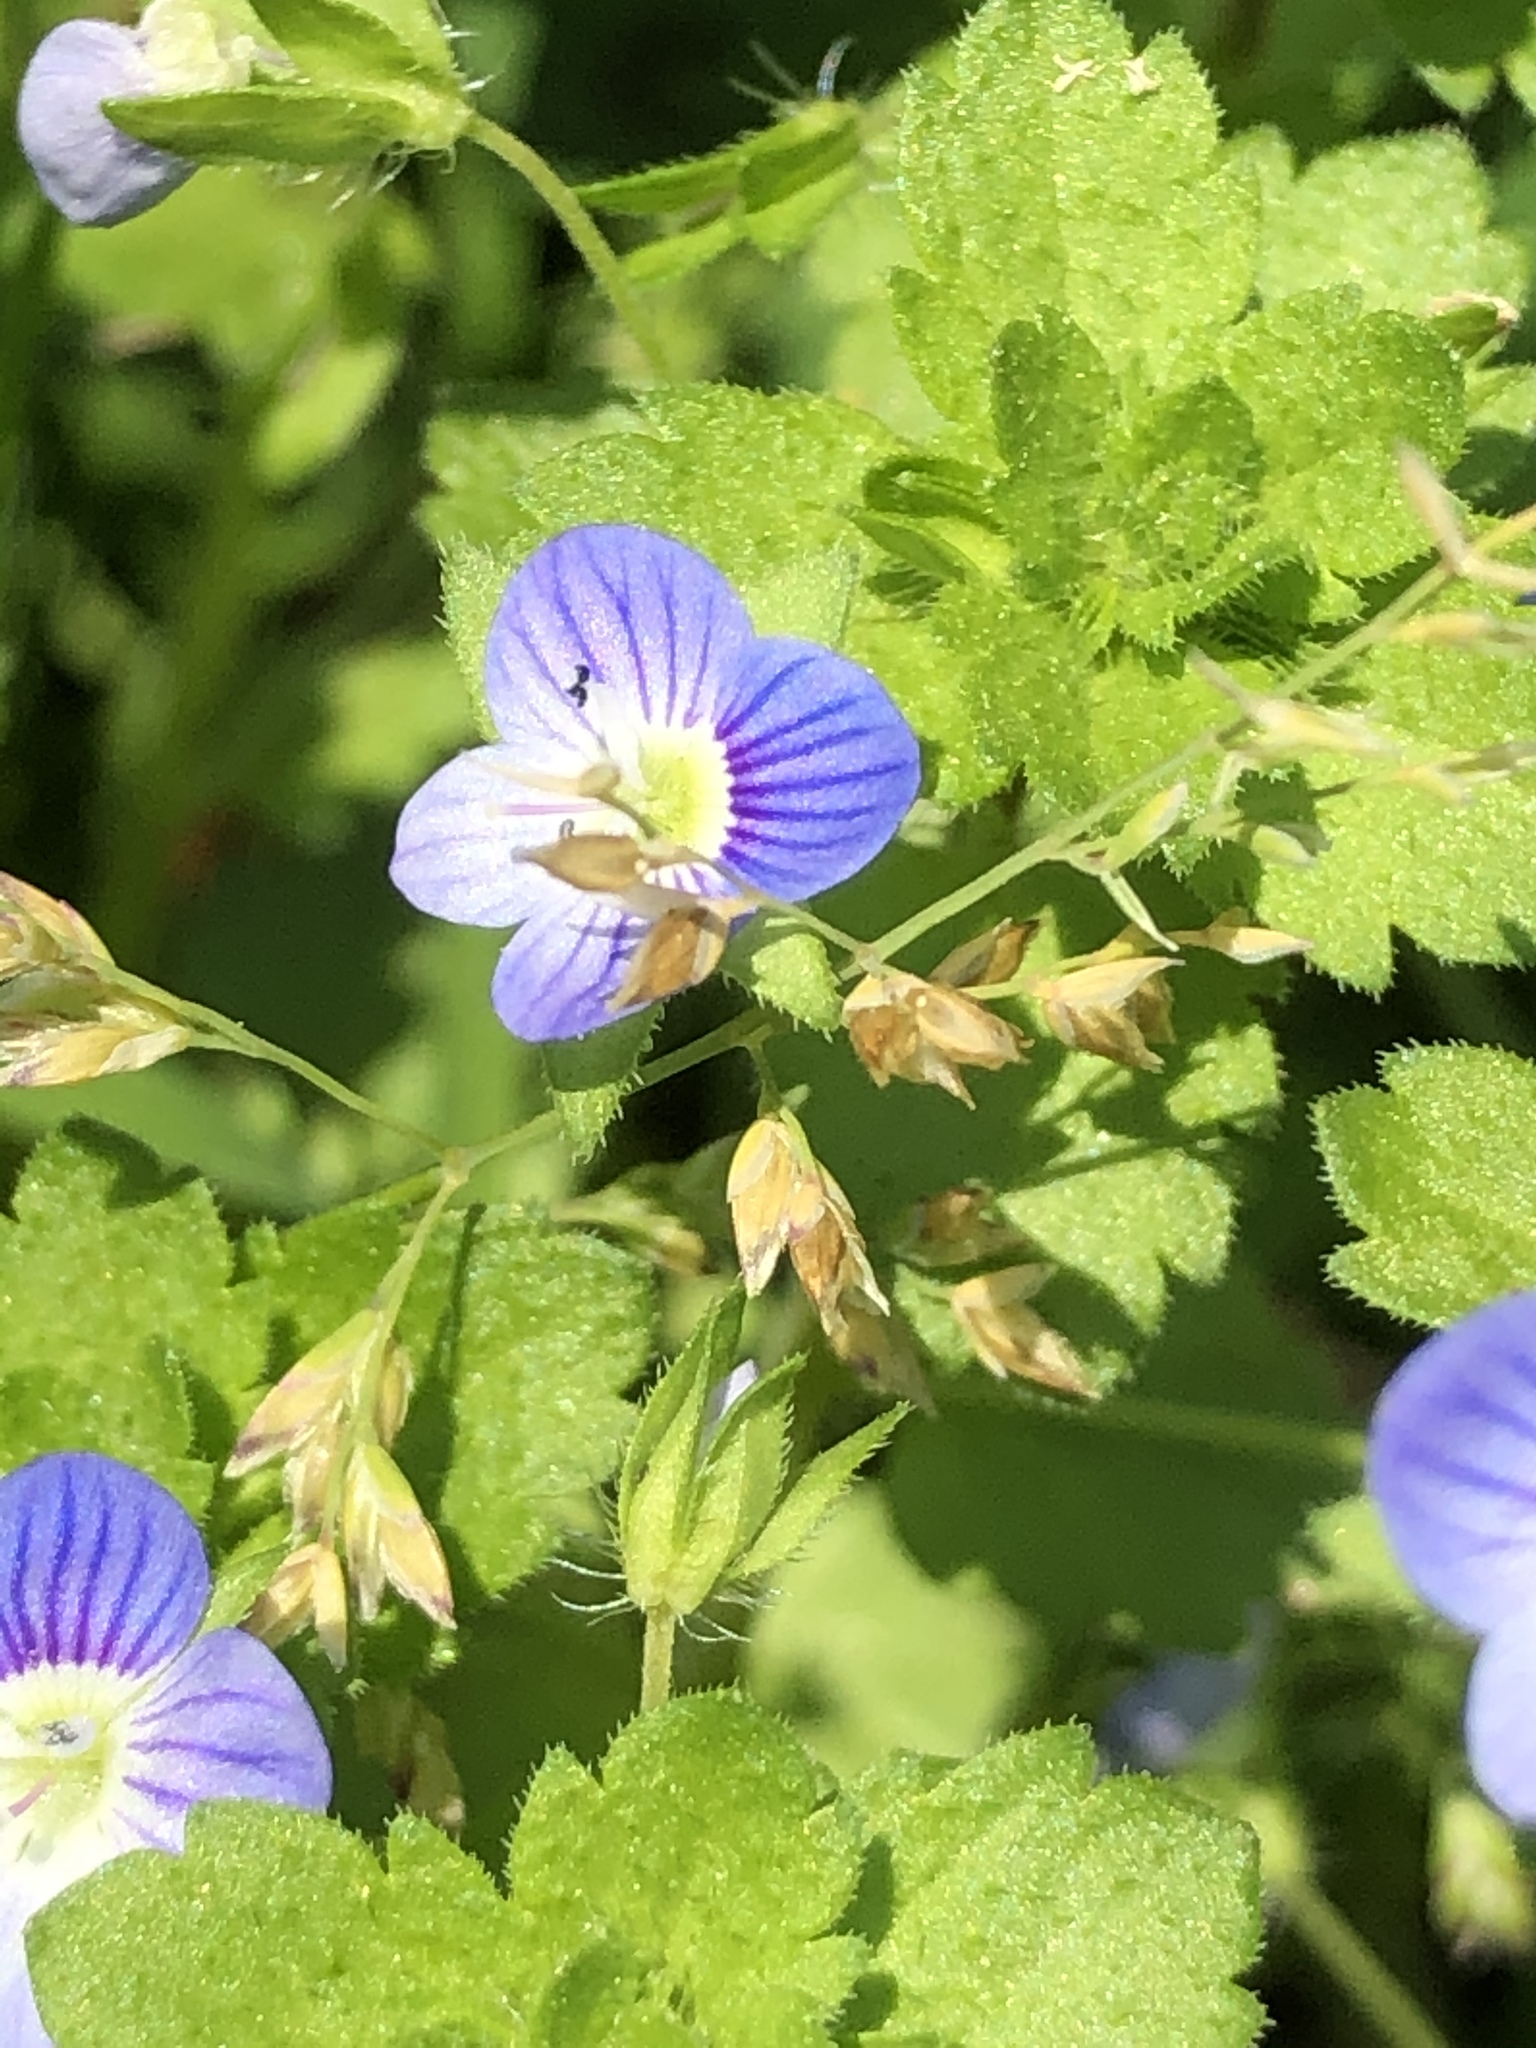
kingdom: Plantae
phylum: Tracheophyta
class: Magnoliopsida
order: Lamiales
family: Plantaginaceae
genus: Veronica
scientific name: Veronica persica
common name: Common field-speedwell
